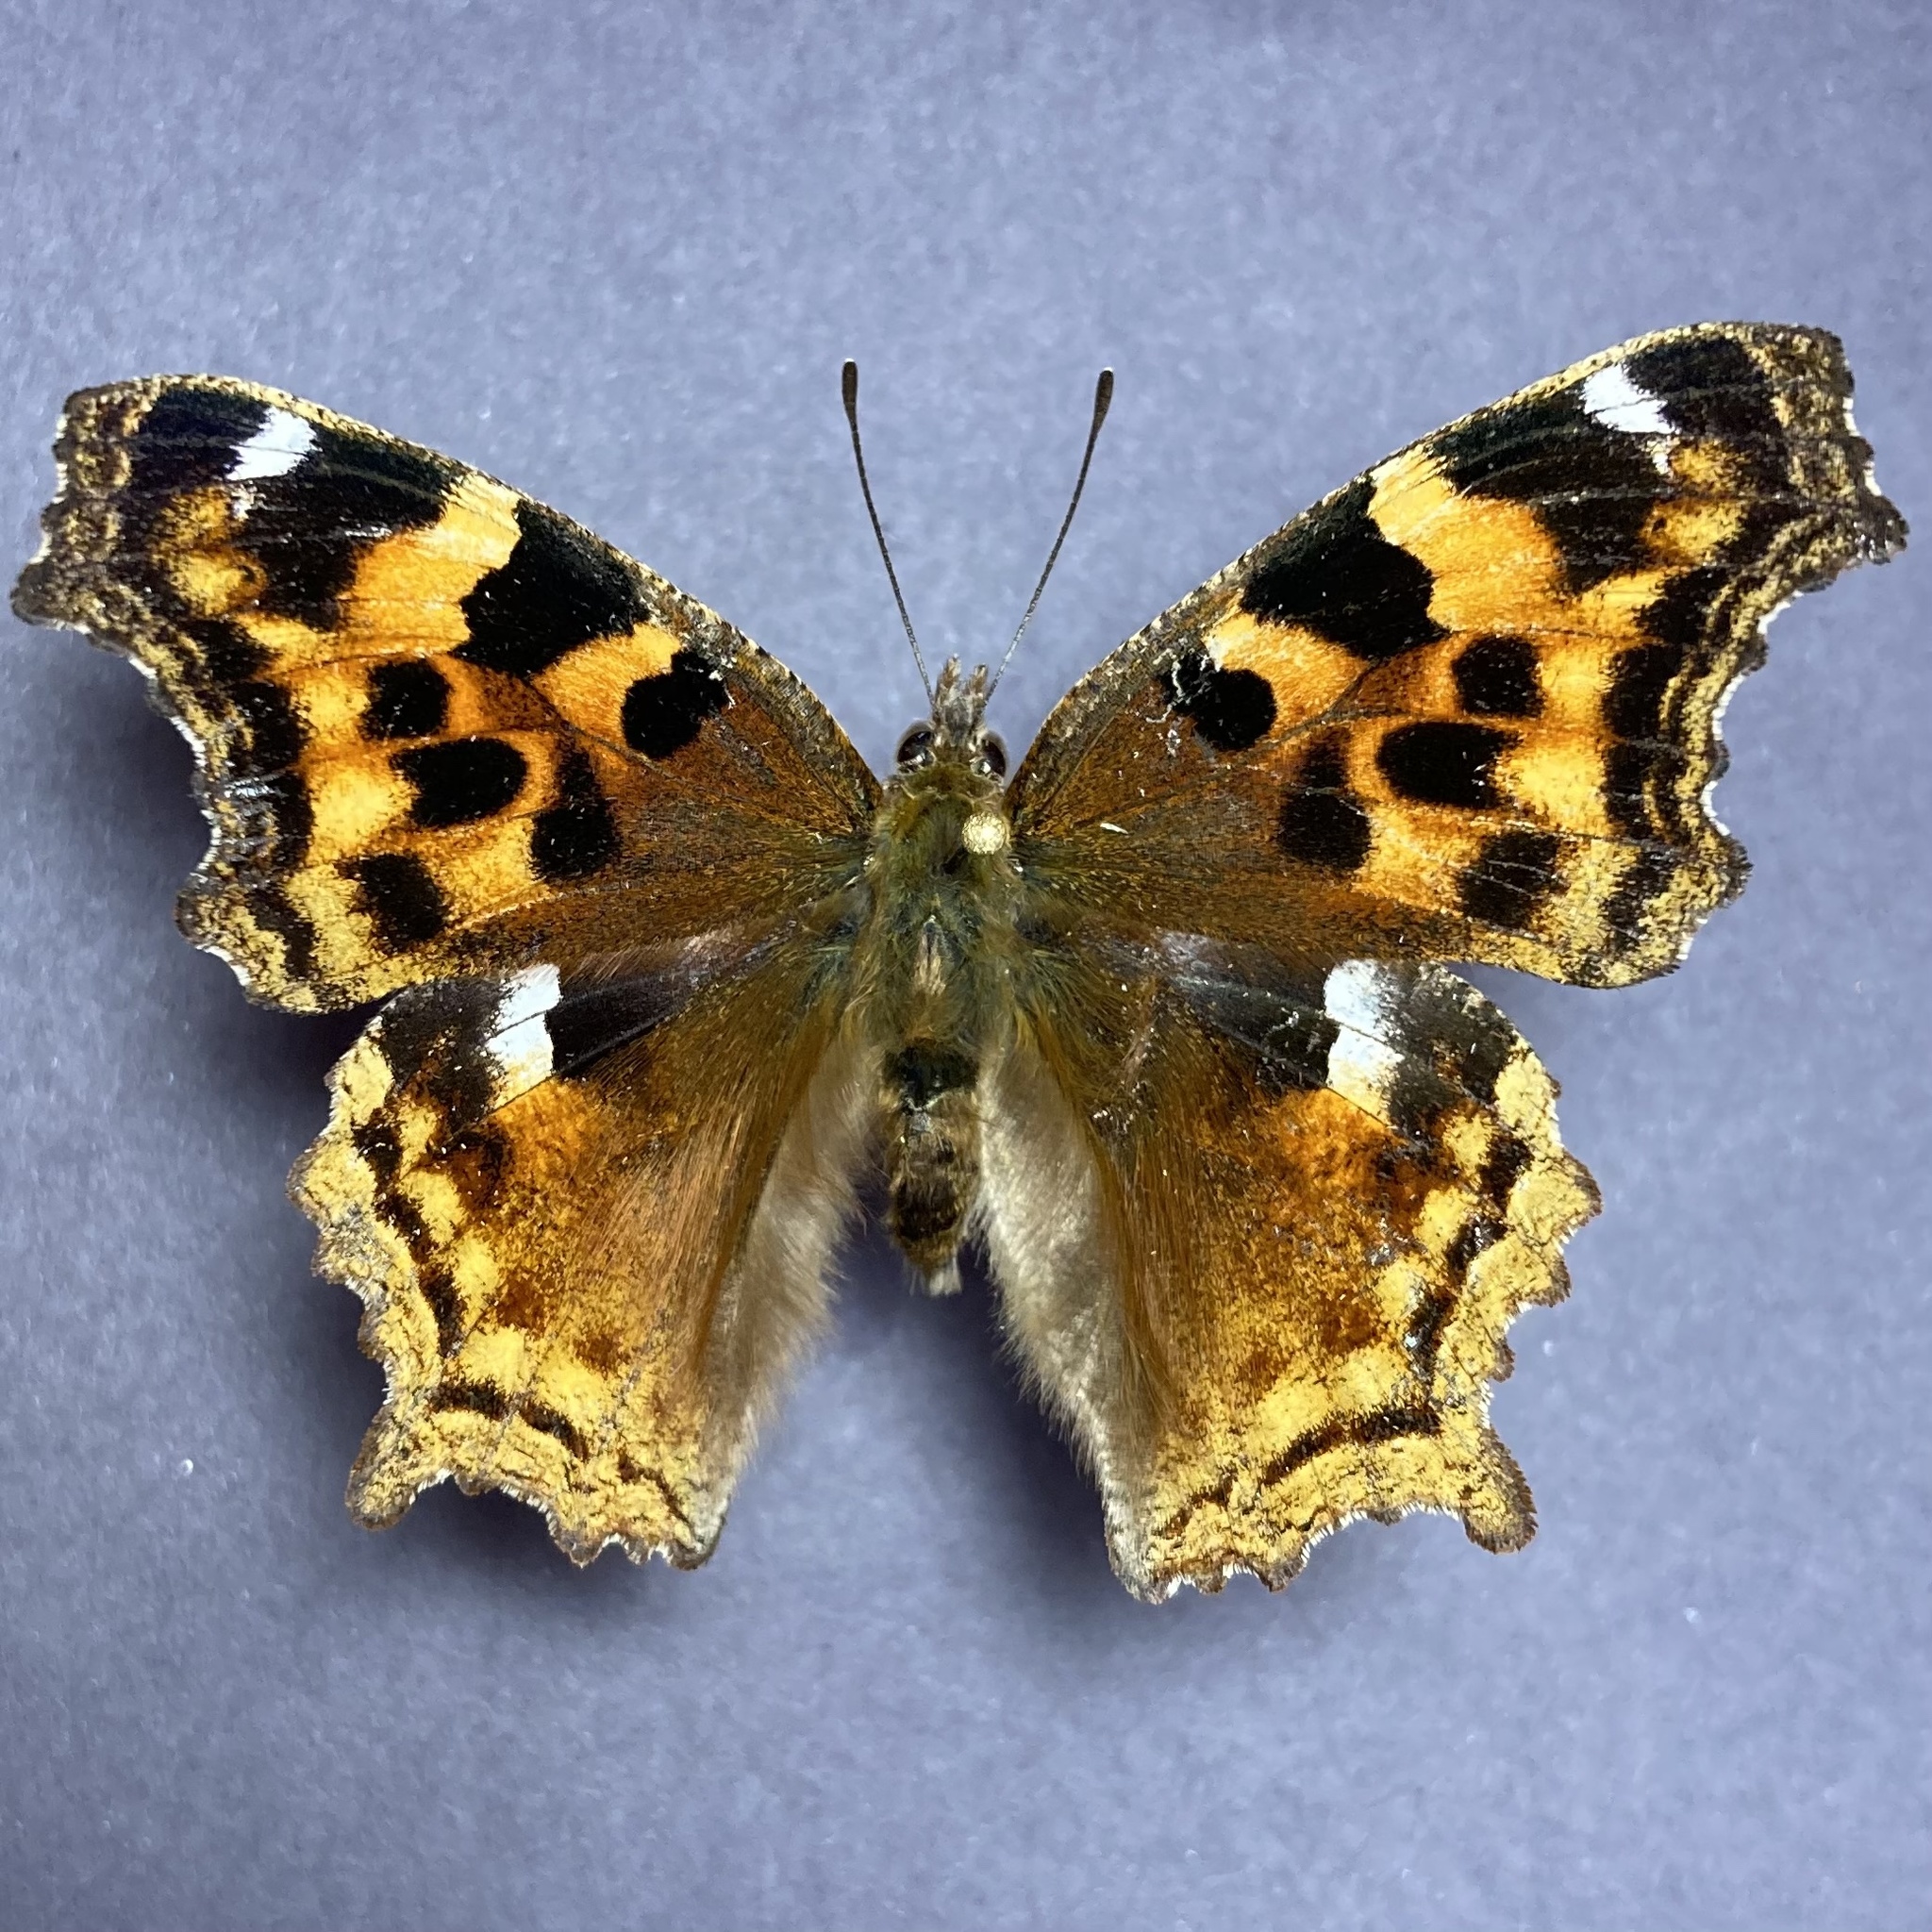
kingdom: Animalia
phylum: Arthropoda
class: Insecta
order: Lepidoptera
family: Nymphalidae
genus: Polygonia
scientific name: Polygonia vaualbum
